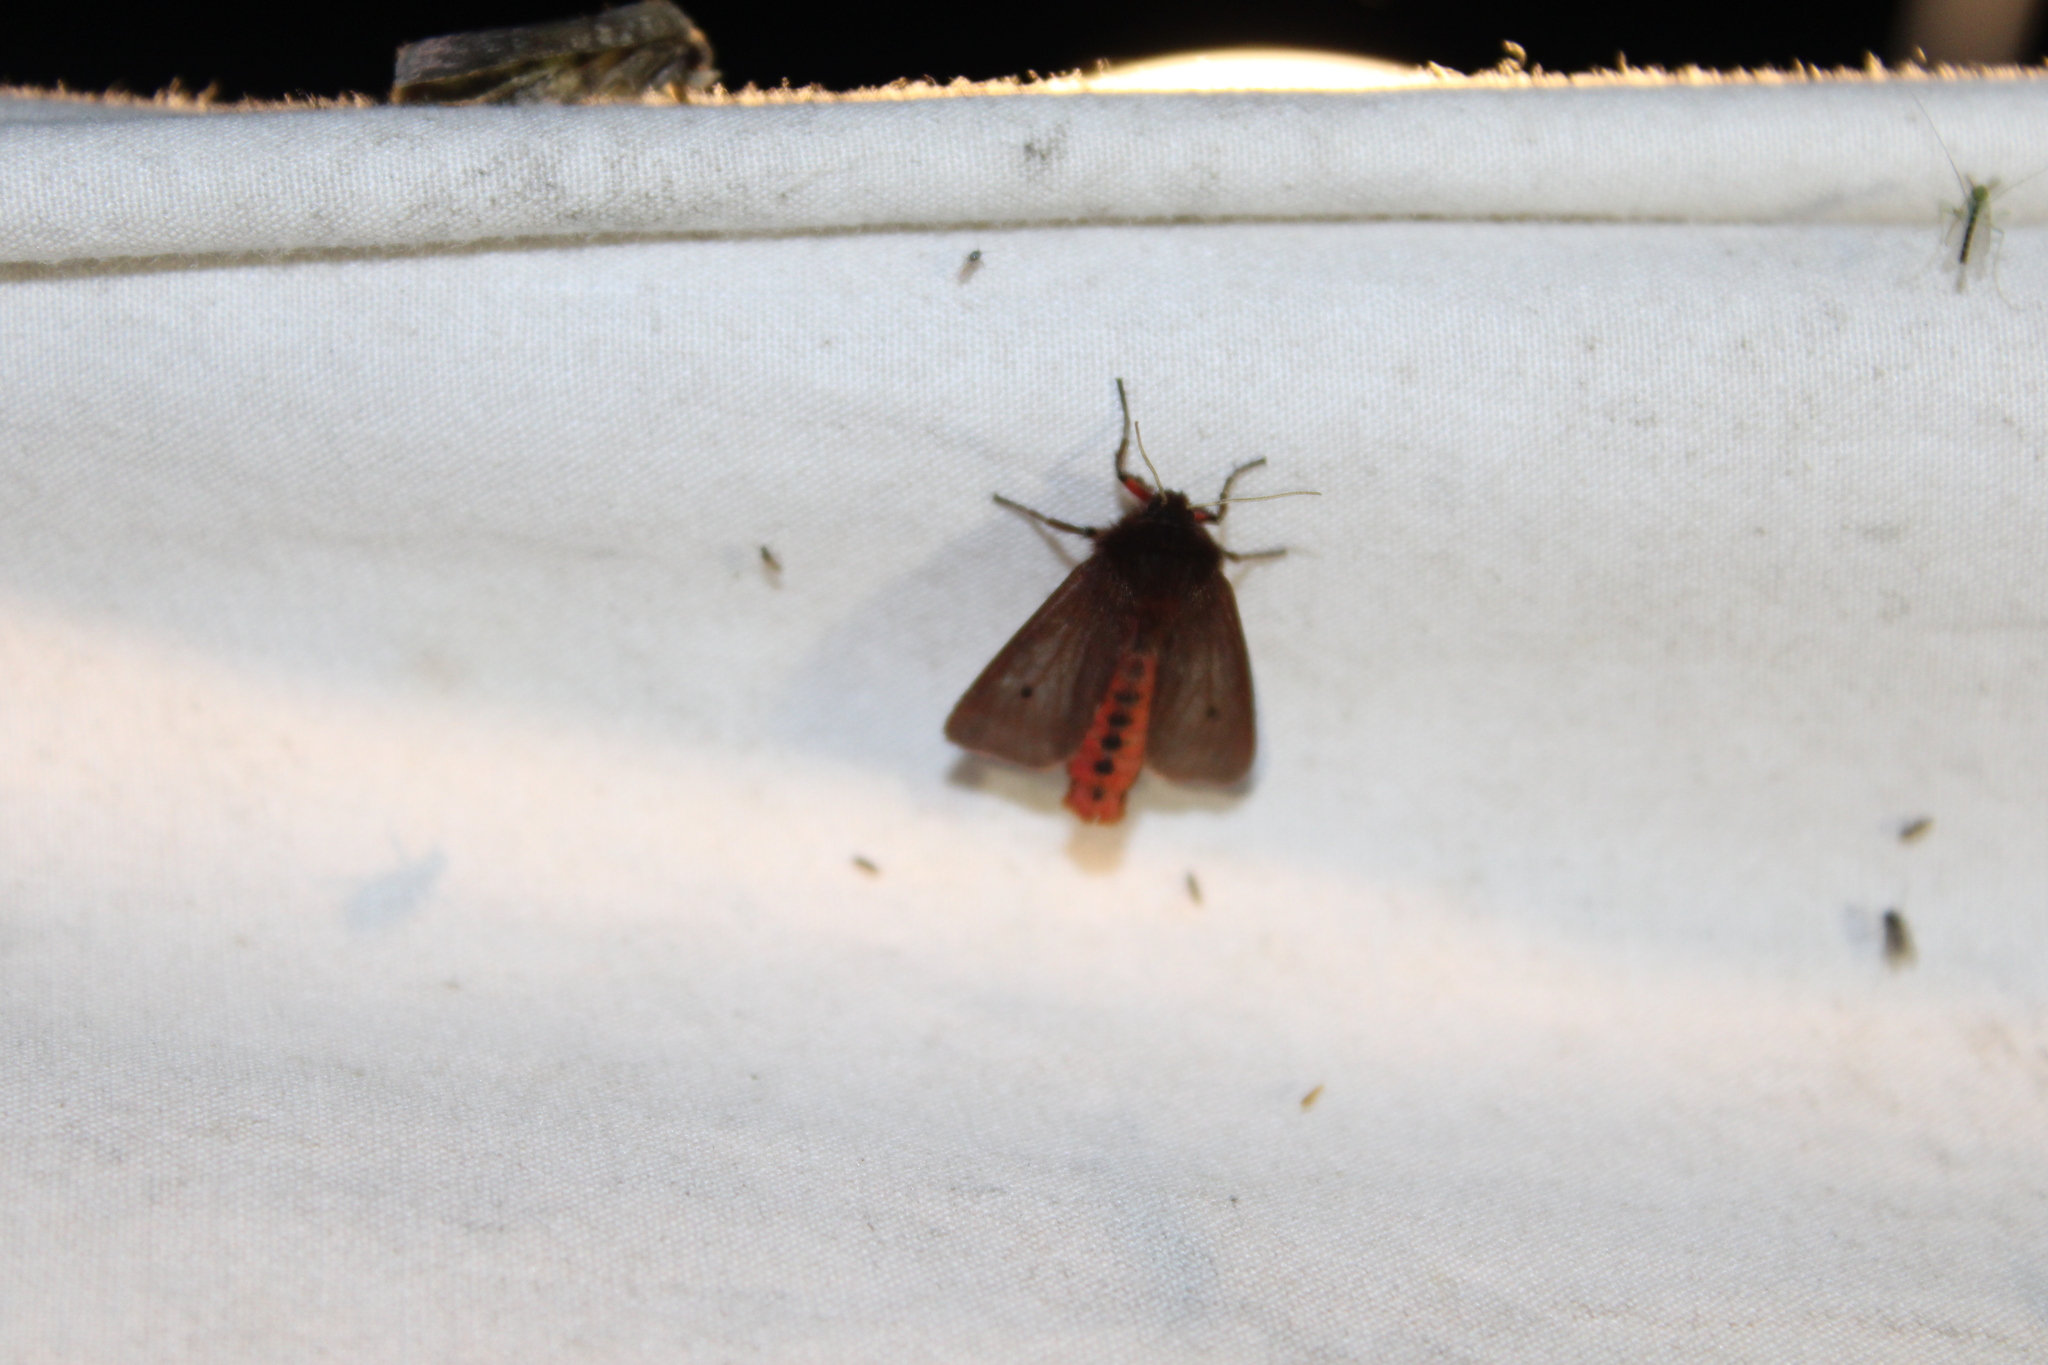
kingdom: Animalia
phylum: Arthropoda
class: Insecta
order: Lepidoptera
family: Erebidae
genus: Phragmatobia
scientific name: Phragmatobia fuliginosa
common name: Ruby tiger
